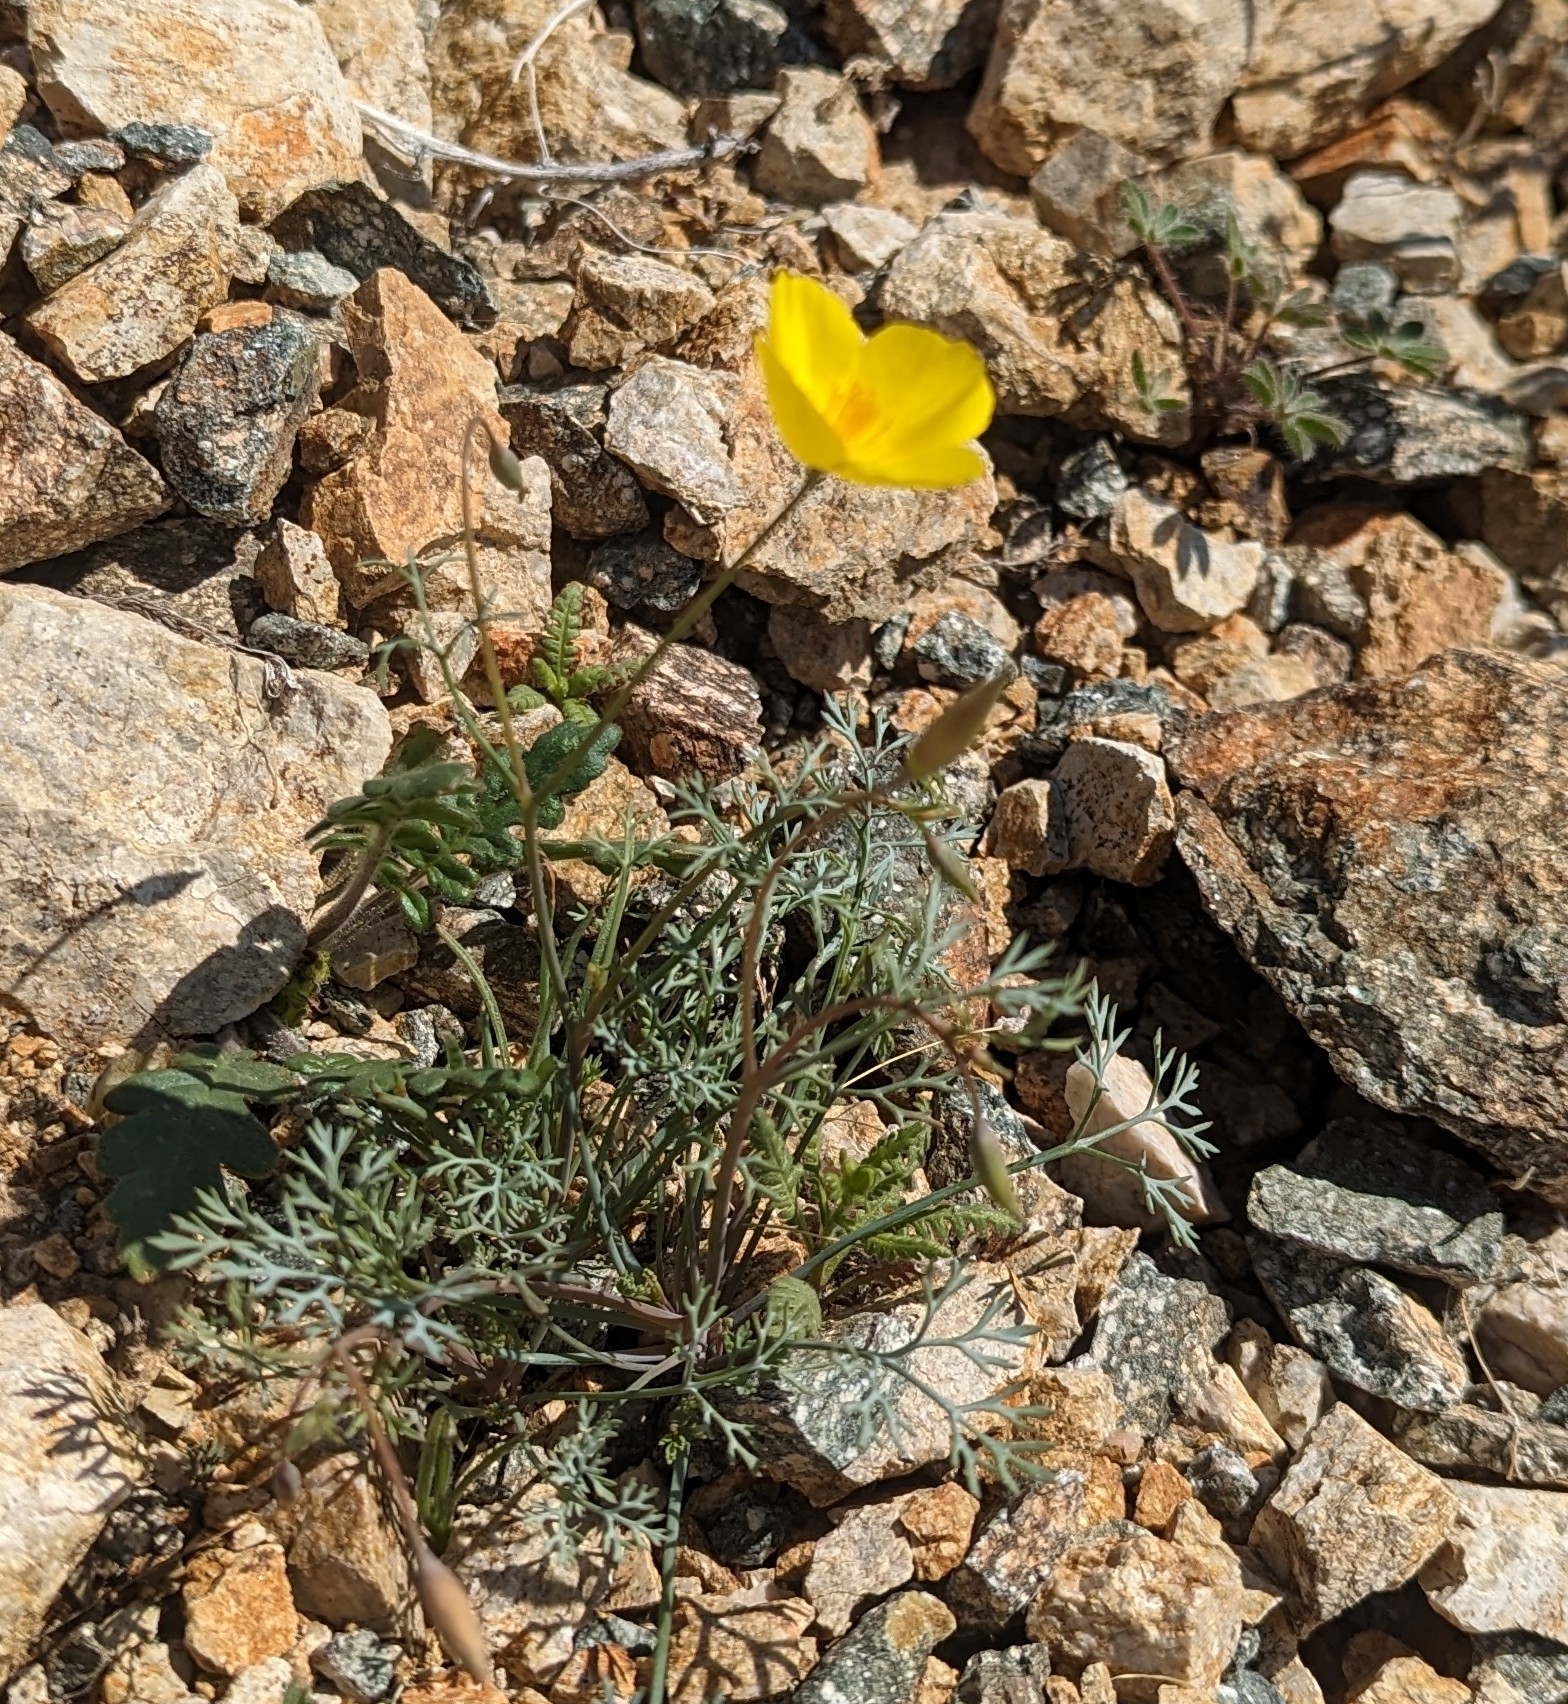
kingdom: Plantae
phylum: Tracheophyta
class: Magnoliopsida
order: Ranunculales
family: Papaveraceae
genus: Eschscholzia
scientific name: Eschscholzia parishii
